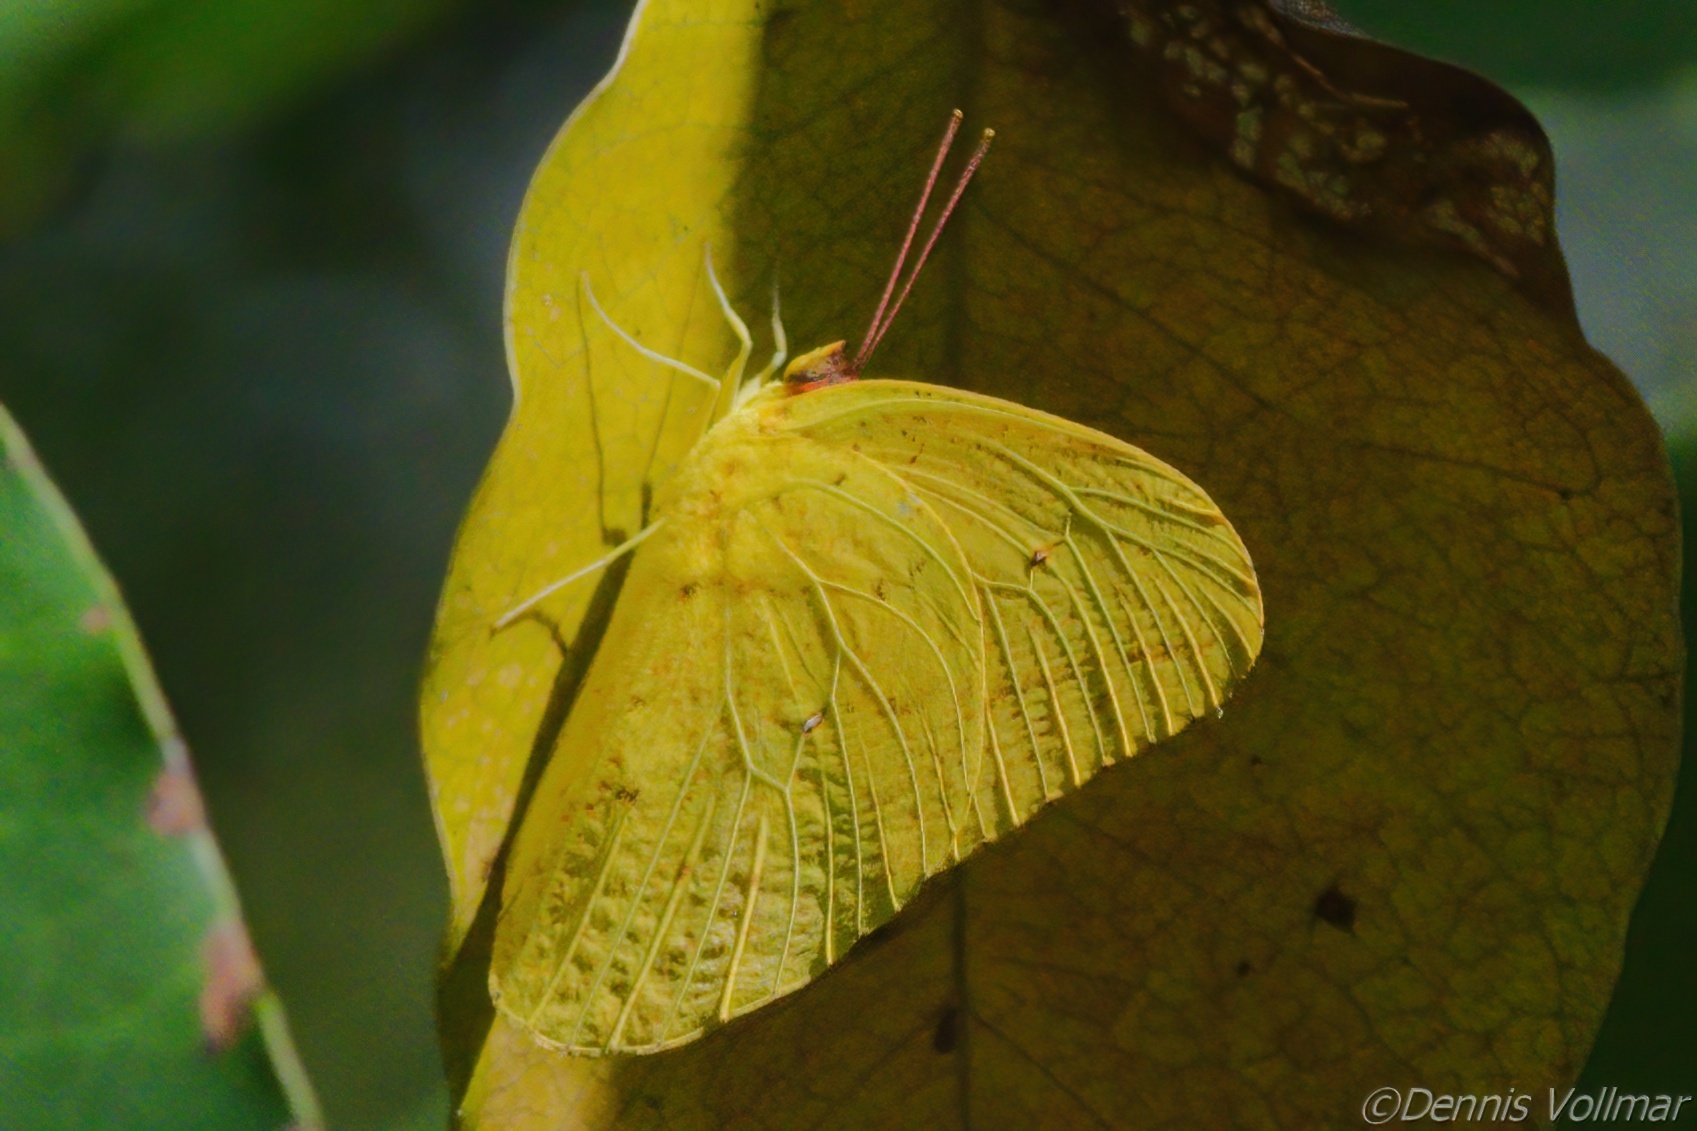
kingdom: Animalia
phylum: Arthropoda
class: Insecta
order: Lepidoptera
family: Pieridae
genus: Phoebis
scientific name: Phoebis agarithe
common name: Large orange sulphur
